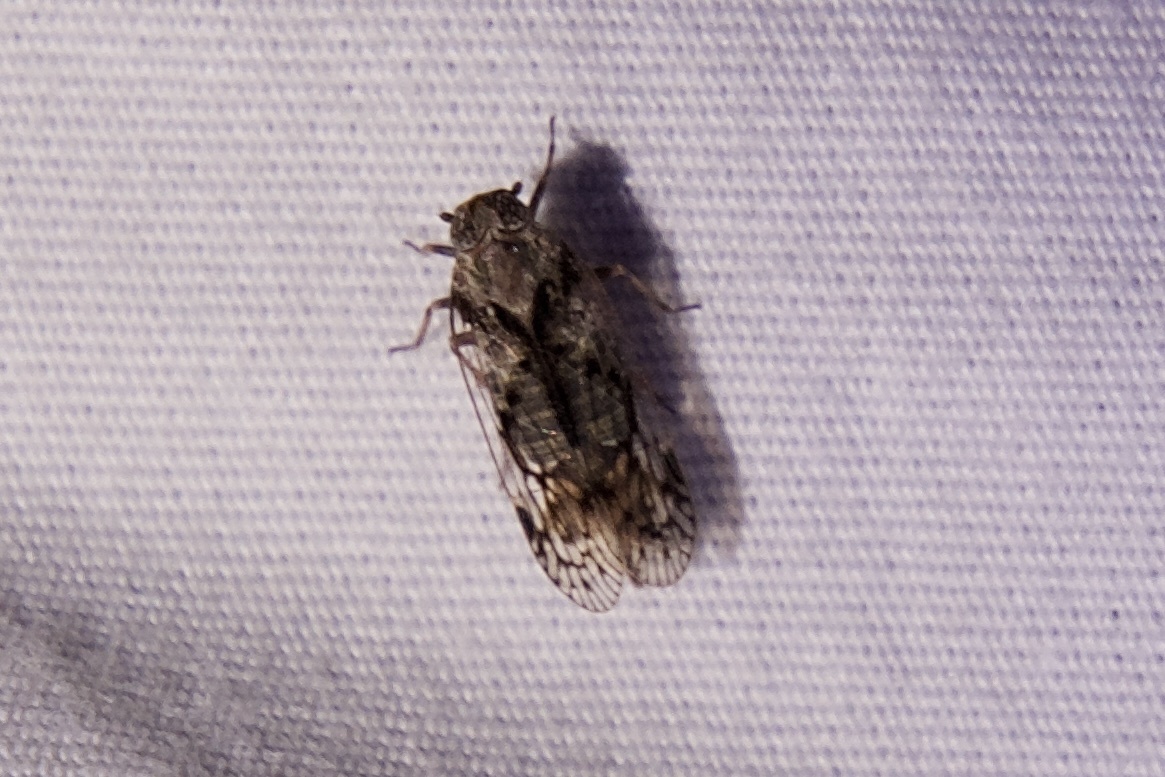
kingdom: Animalia
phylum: Arthropoda
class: Insecta
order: Hemiptera
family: Cixiidae
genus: Melanoliarus
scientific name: Melanoliarus aridus
